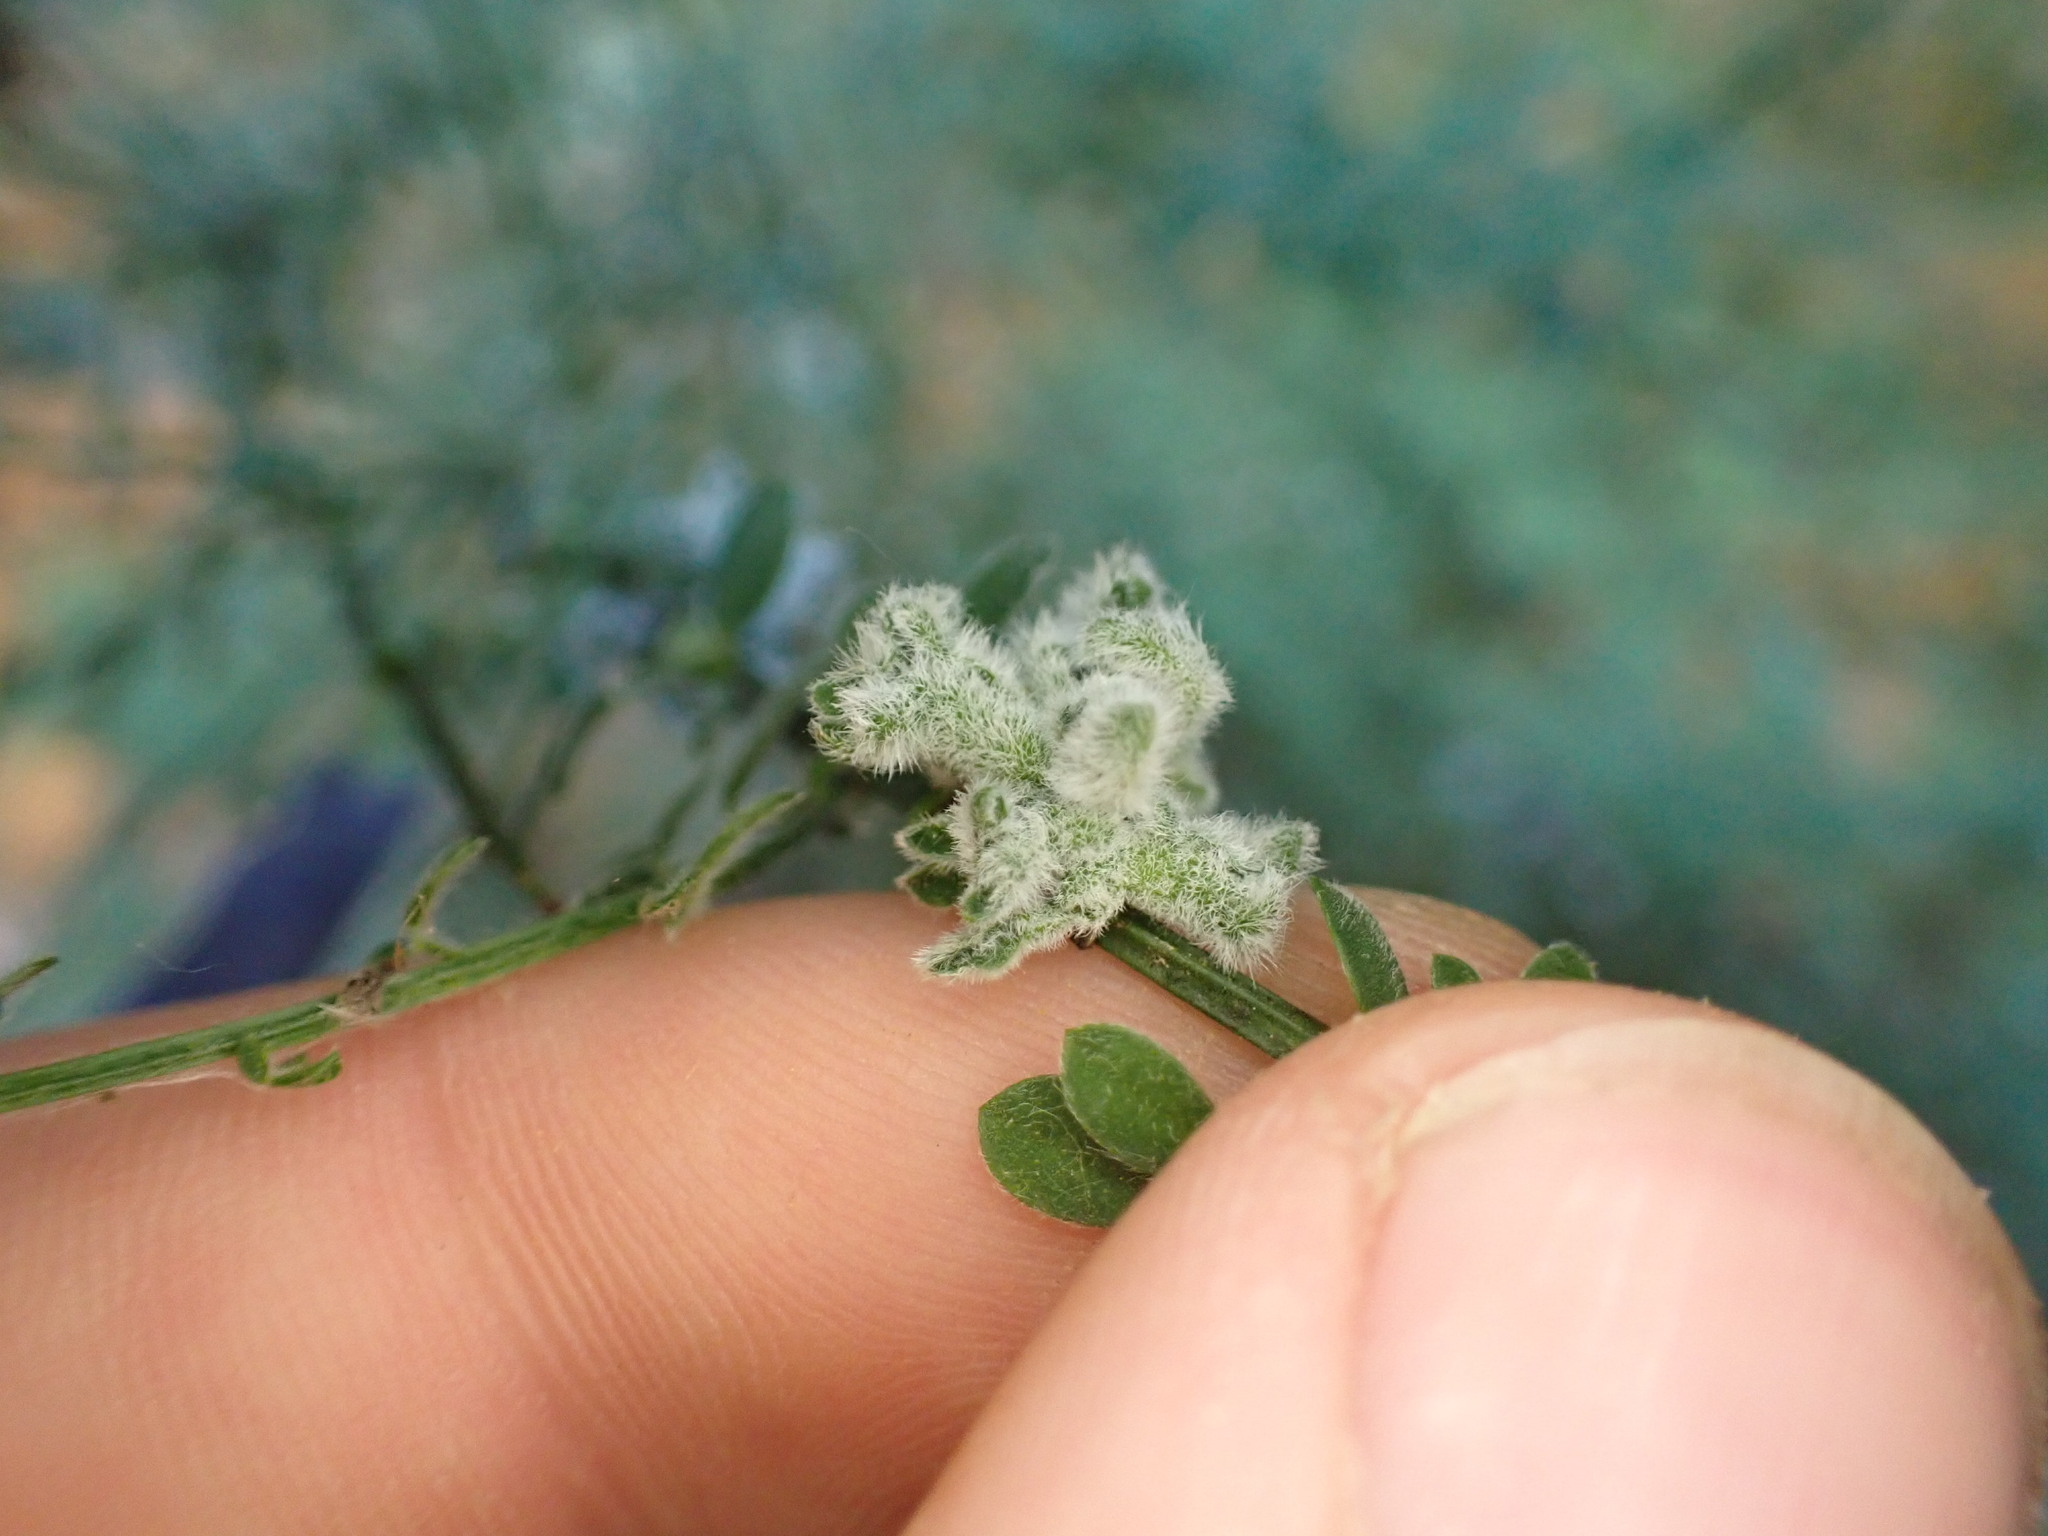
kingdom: Animalia
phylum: Arthropoda
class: Arachnida
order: Trombidiformes
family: Eriophyidae
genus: Aceria
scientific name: Aceria genistae
